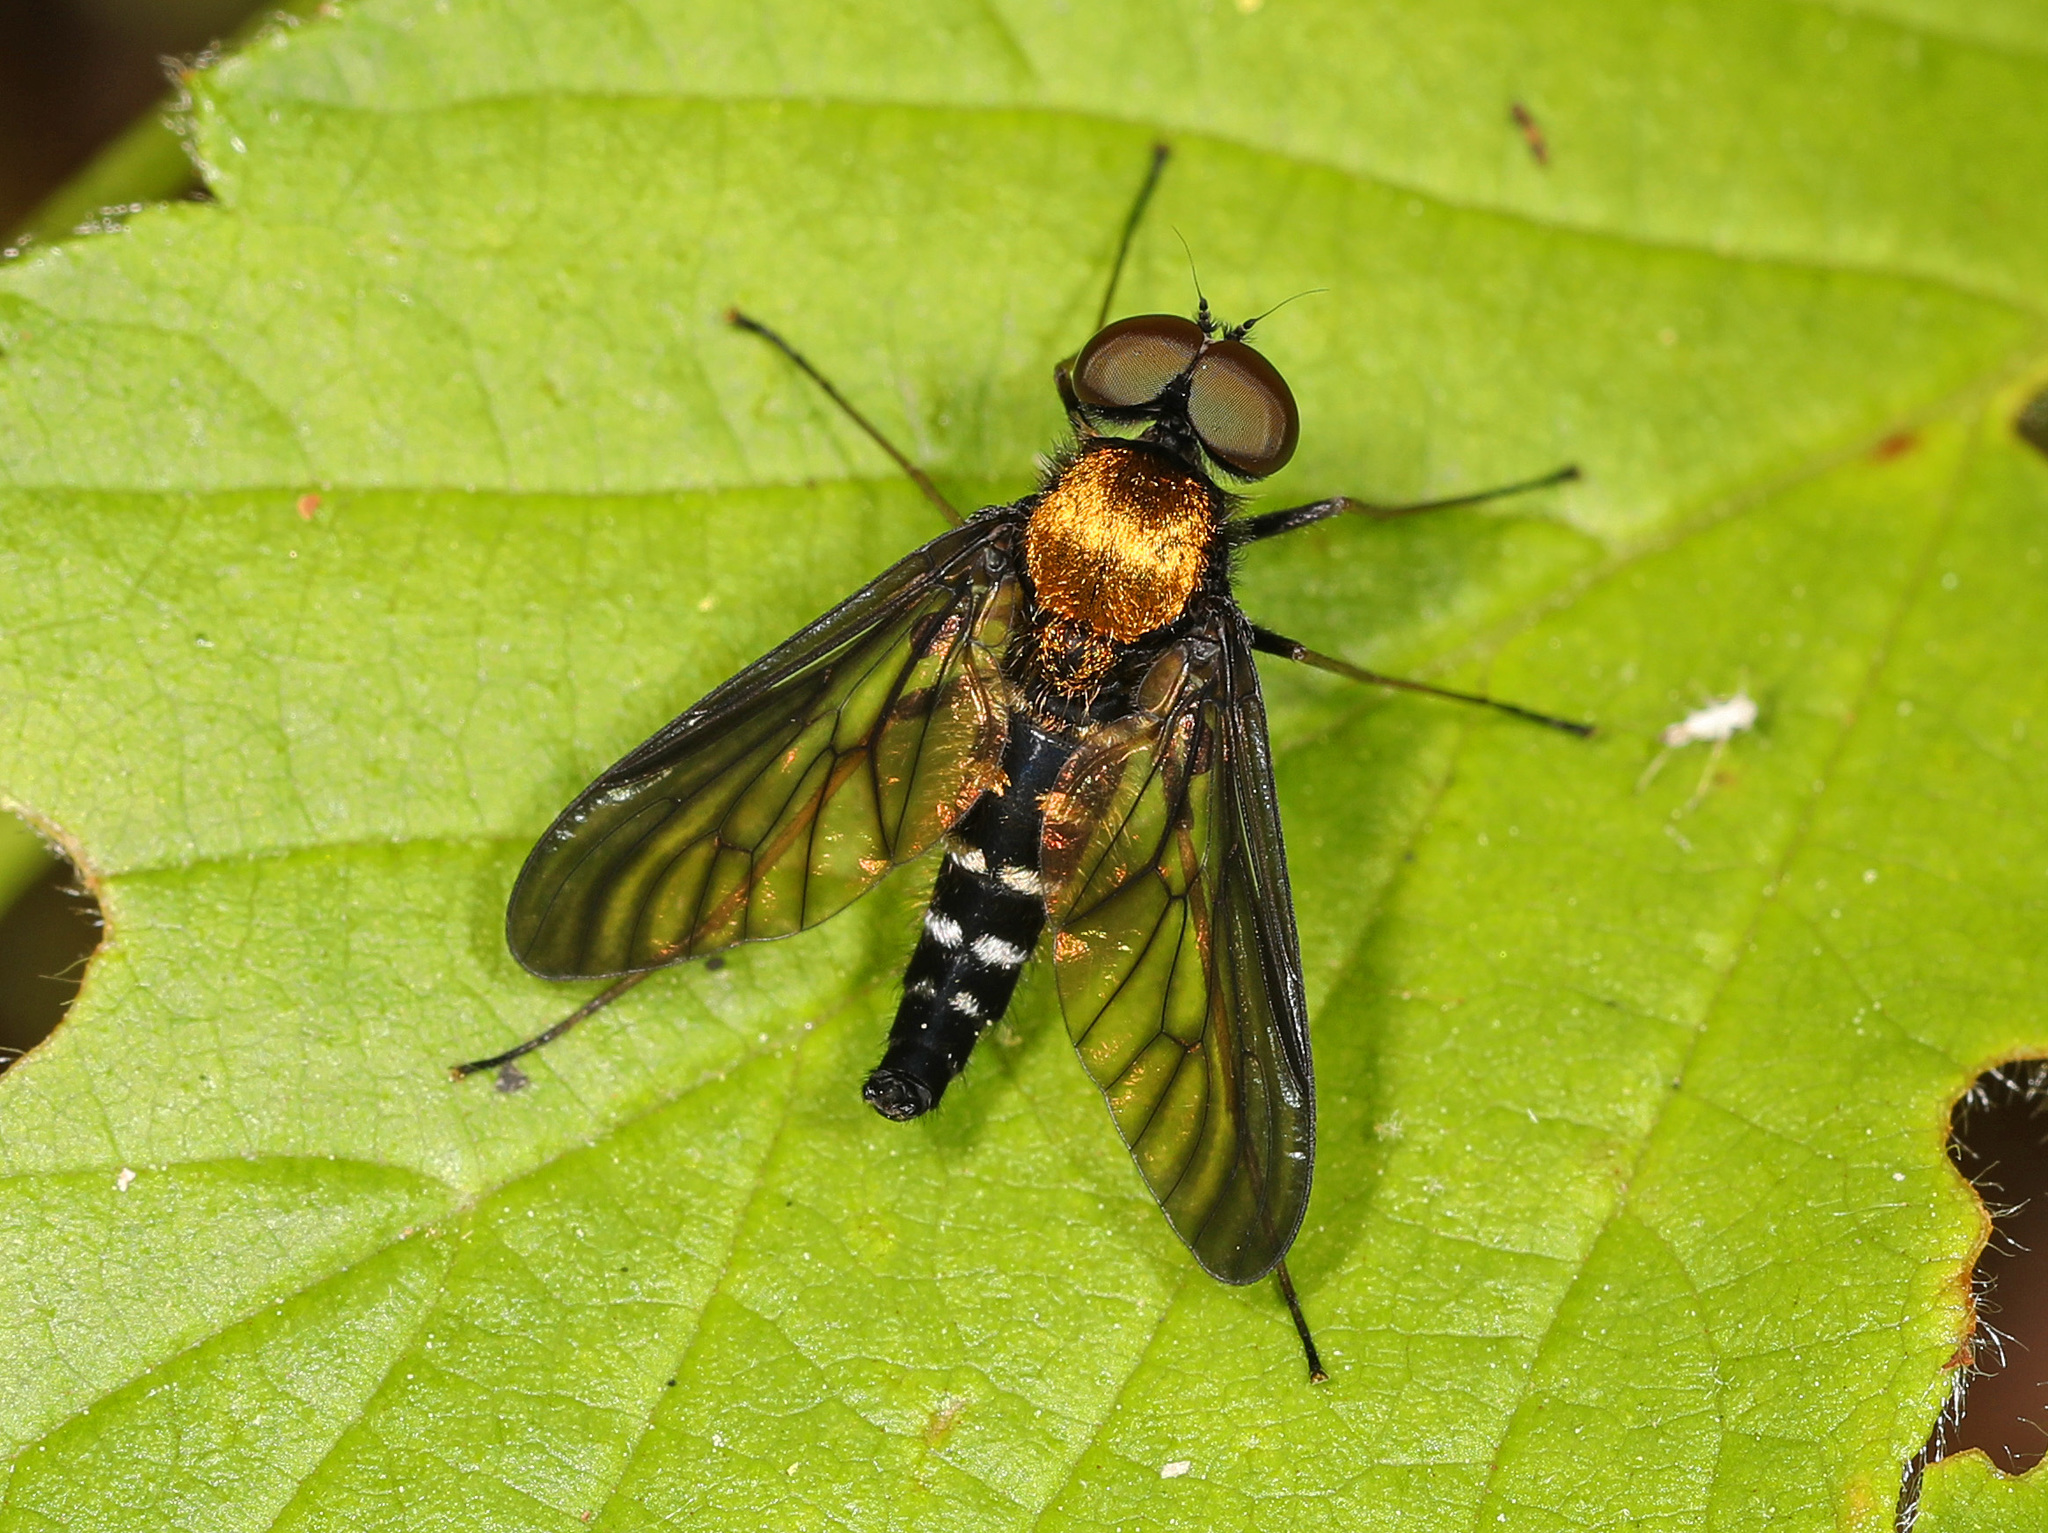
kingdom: Animalia
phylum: Arthropoda
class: Insecta
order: Diptera
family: Rhagionidae
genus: Chrysopilus
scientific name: Chrysopilus thoracicus
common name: Golden-backed snipe fly
